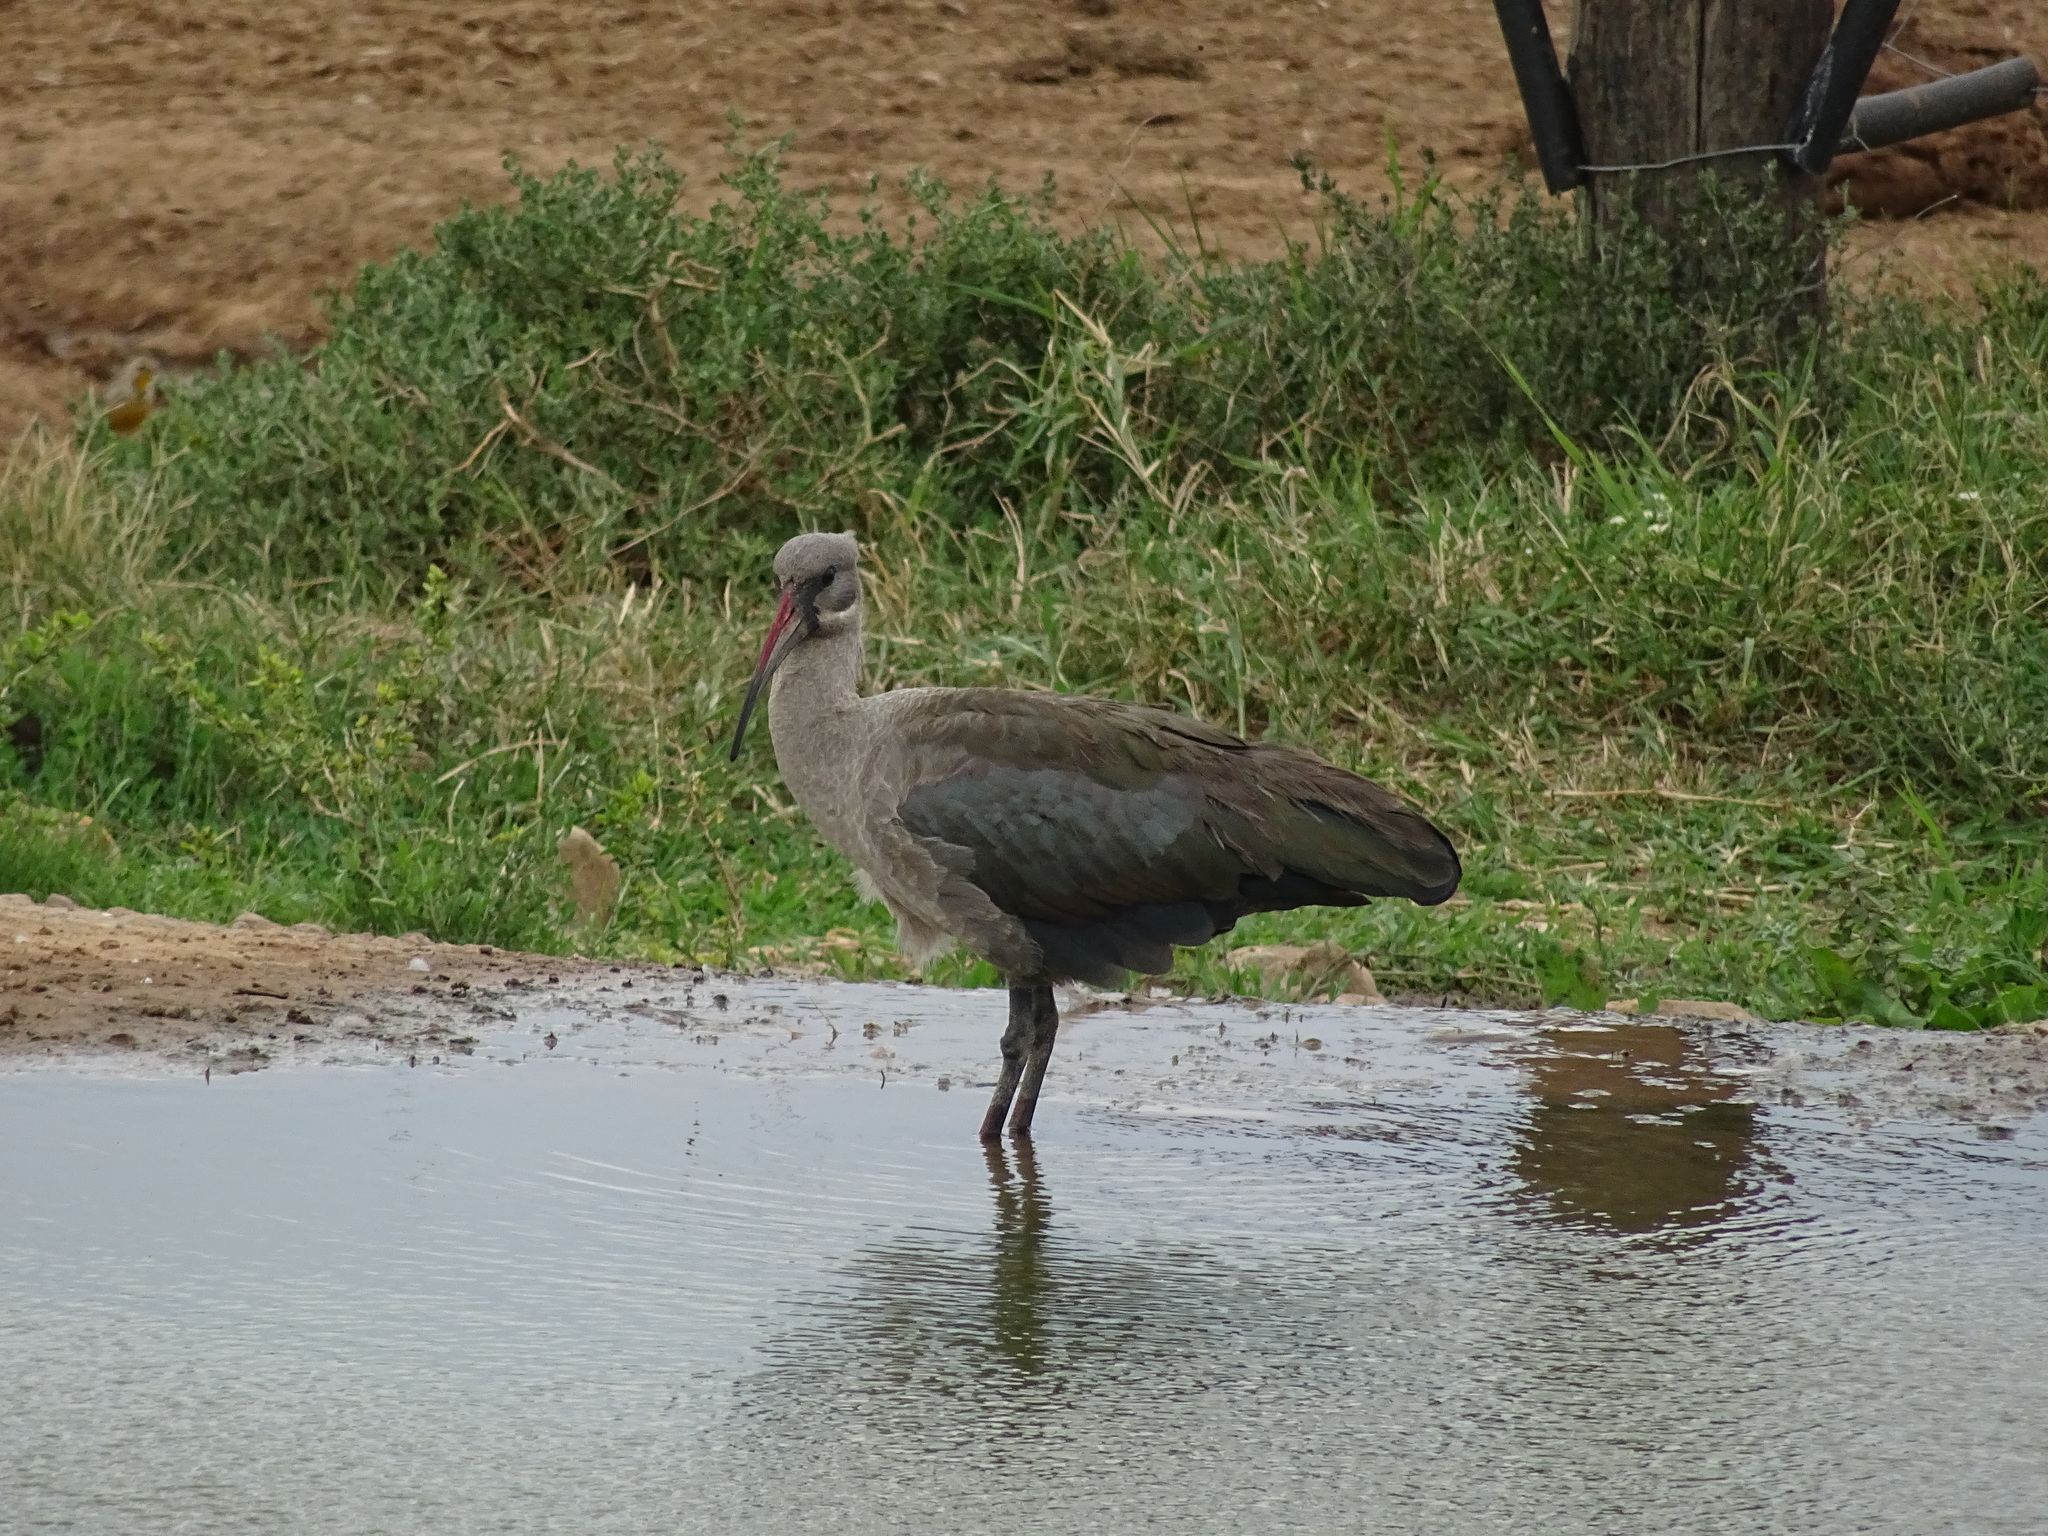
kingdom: Animalia
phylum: Chordata
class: Aves
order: Pelecaniformes
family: Threskiornithidae
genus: Bostrychia
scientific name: Bostrychia hagedash
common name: Hadada ibis
